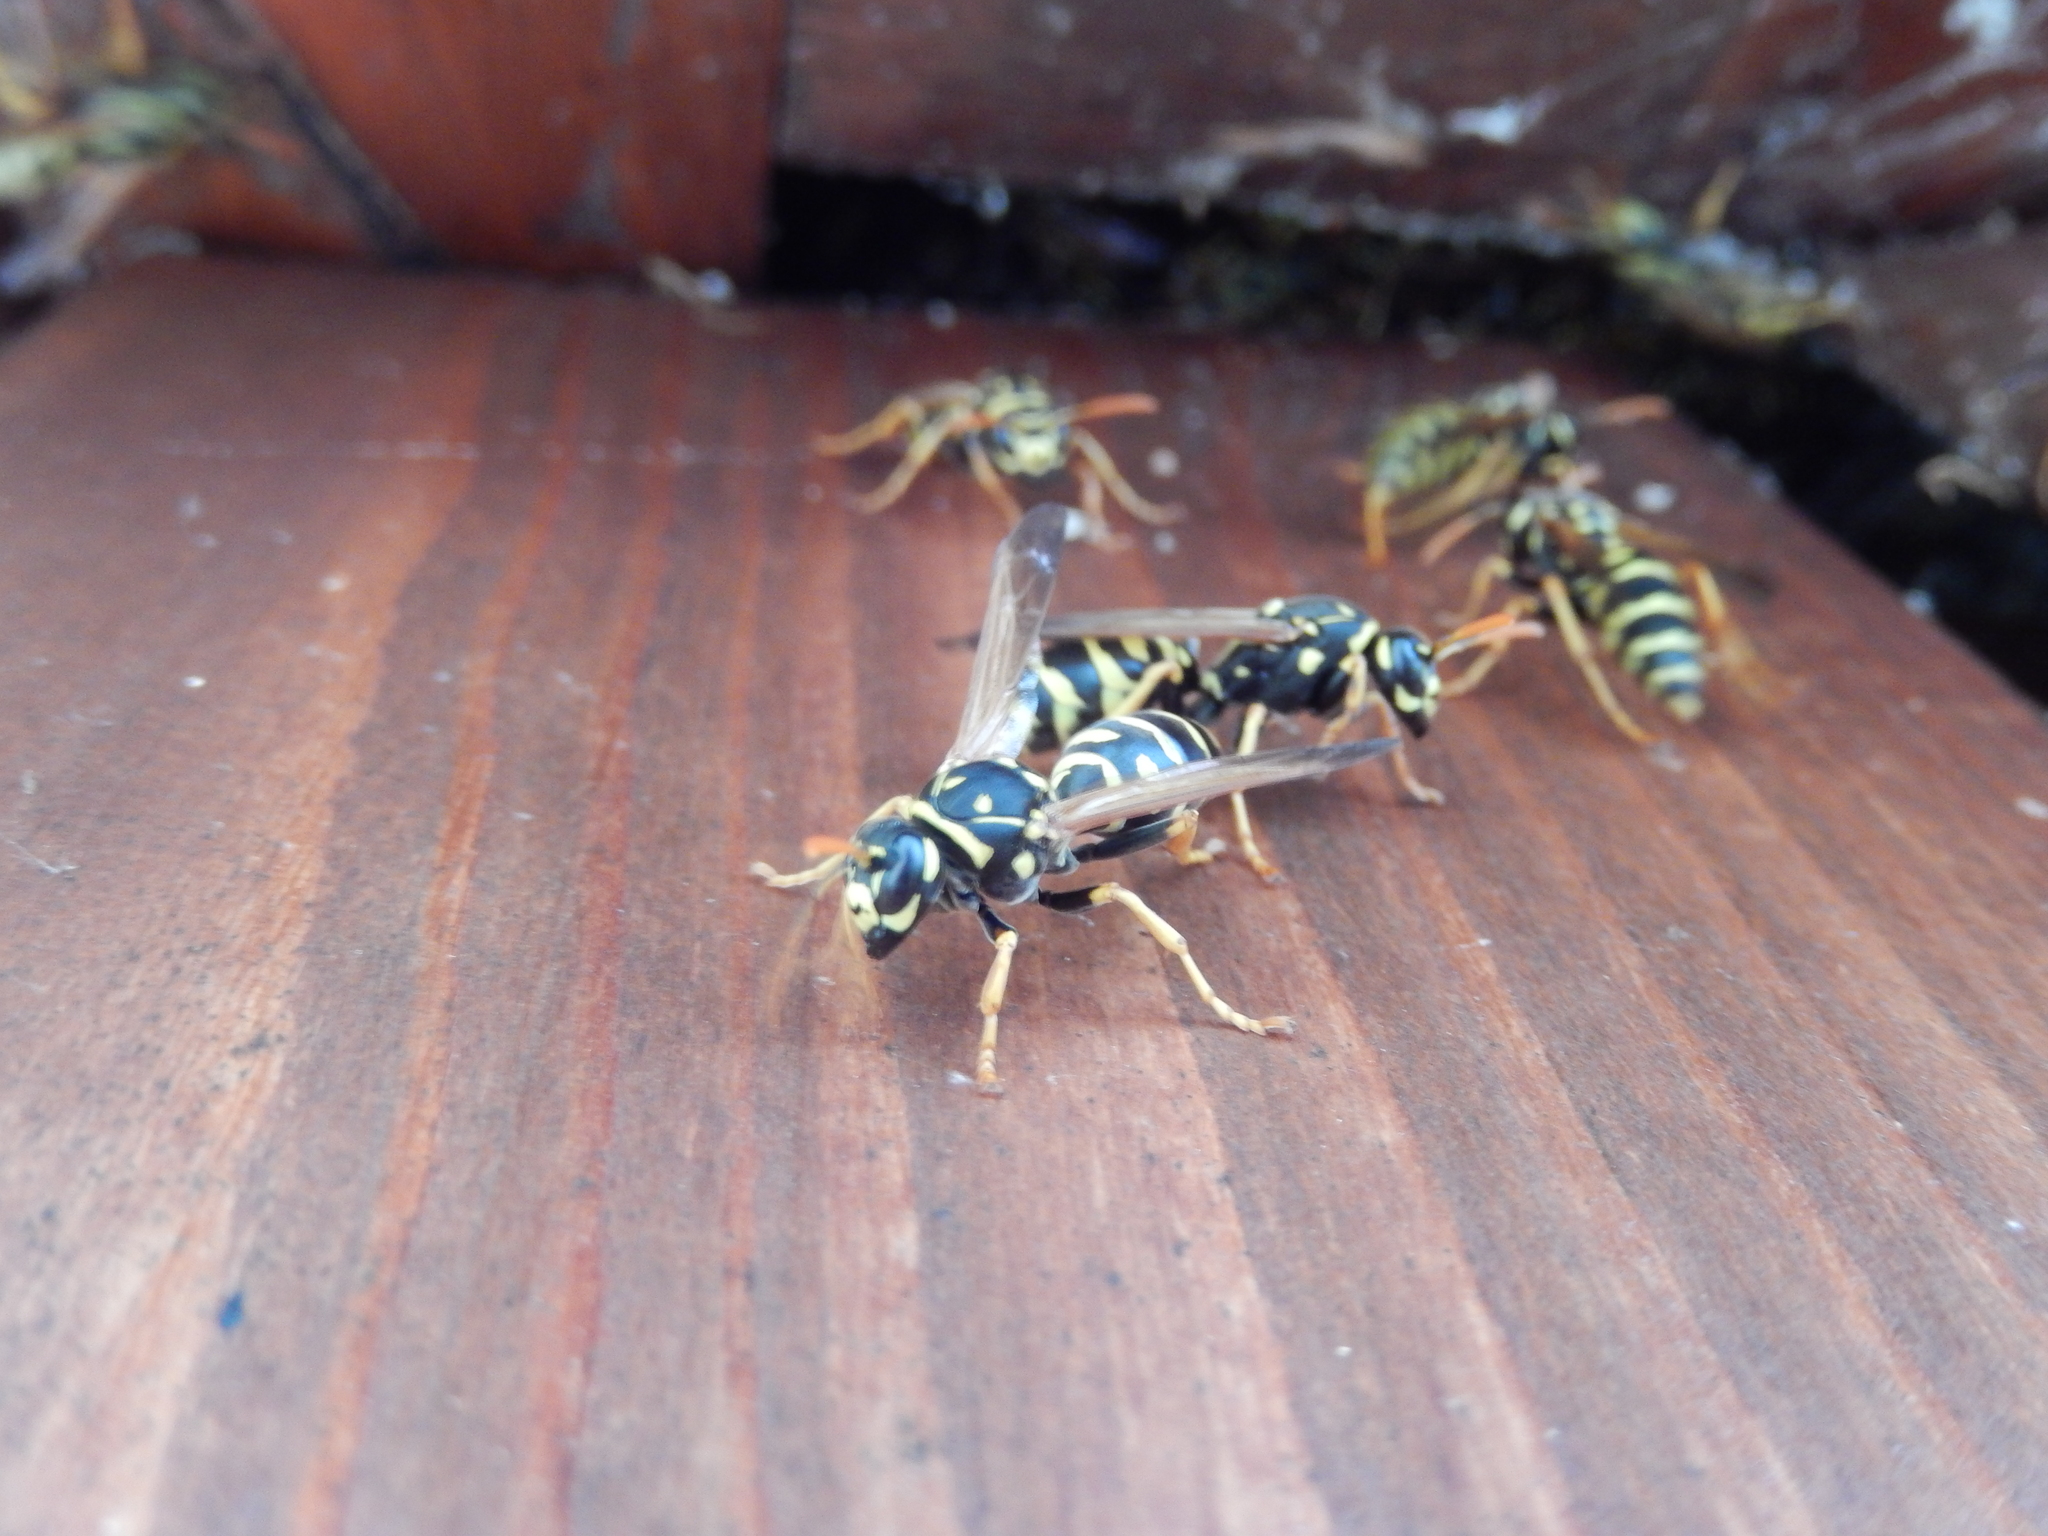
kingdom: Animalia
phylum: Arthropoda
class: Insecta
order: Hymenoptera
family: Eumenidae
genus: Polistes
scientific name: Polistes dominula
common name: Paper wasp
